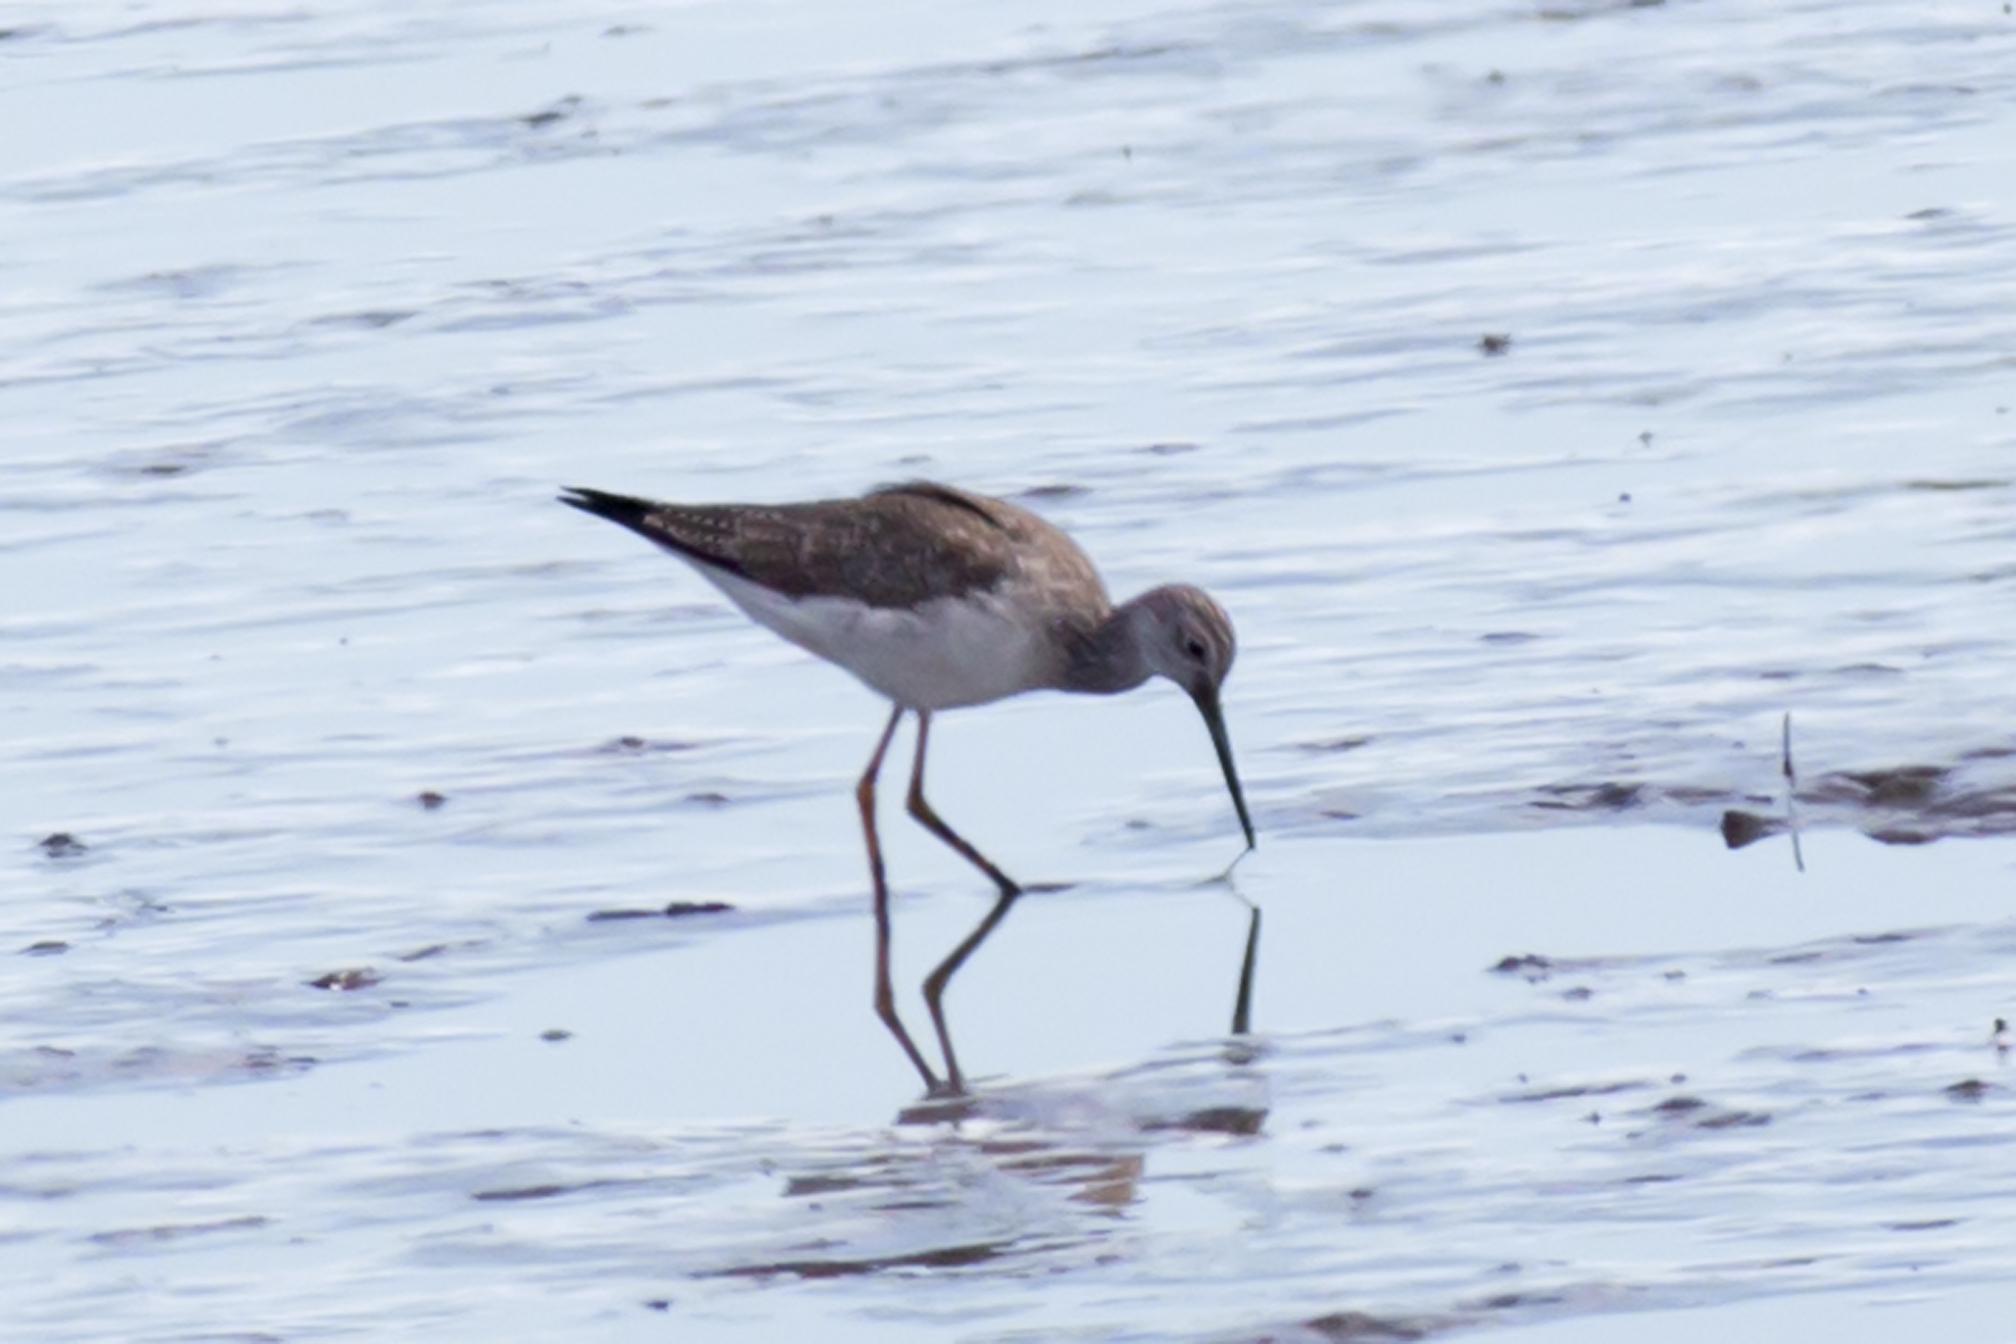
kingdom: Animalia
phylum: Chordata
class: Aves
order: Charadriiformes
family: Scolopacidae
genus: Tringa
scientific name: Tringa melanoleuca
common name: Greater yellowlegs
